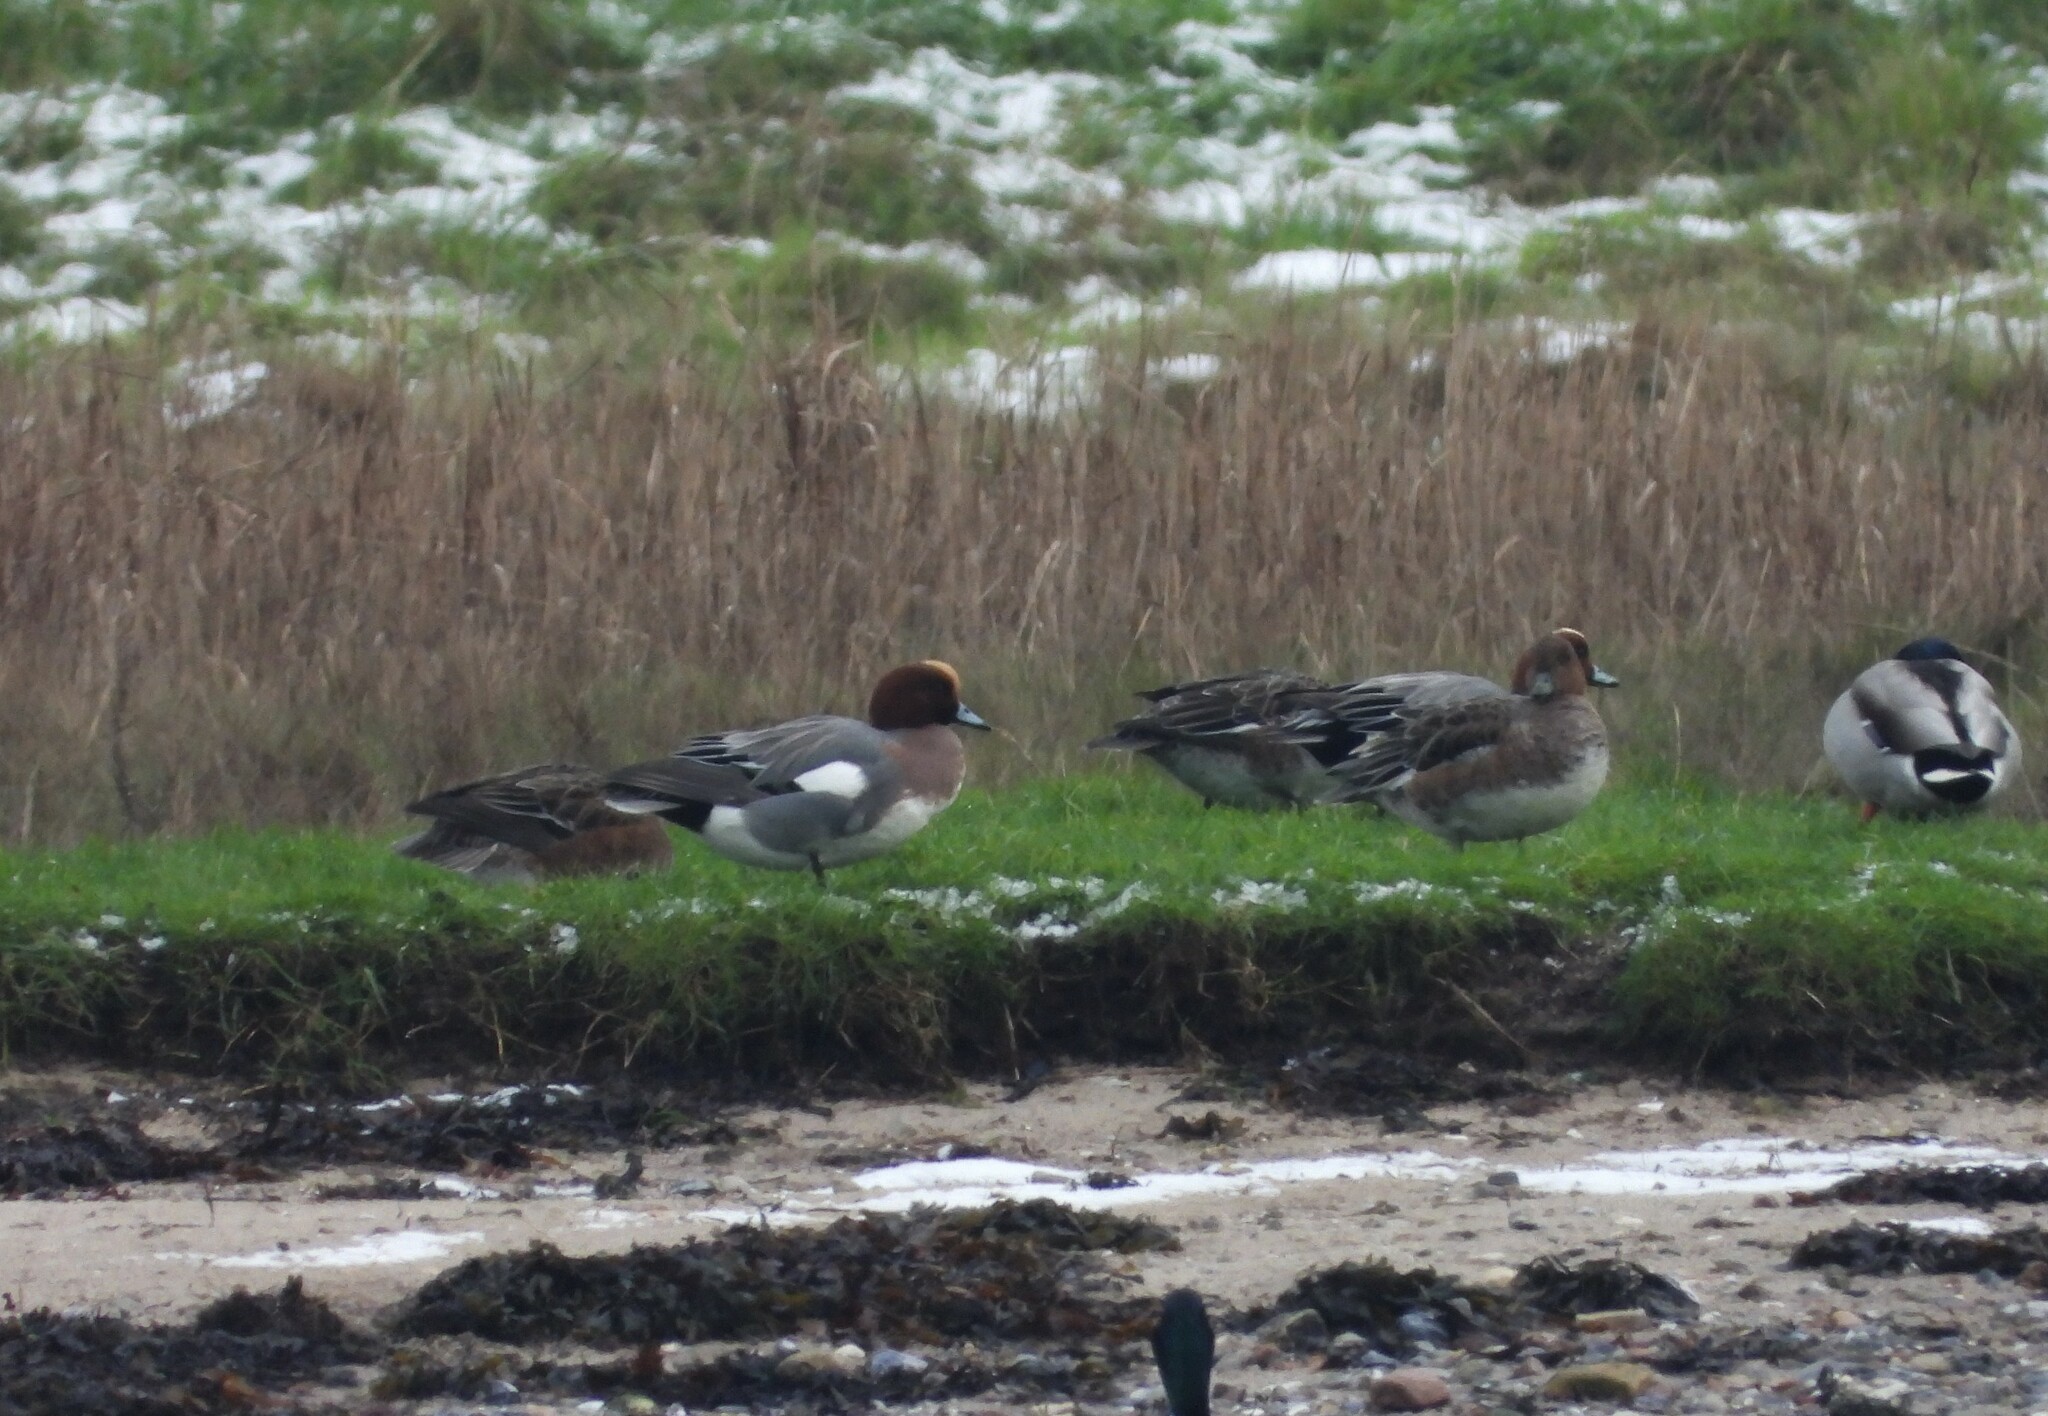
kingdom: Animalia
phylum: Chordata
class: Aves
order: Anseriformes
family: Anatidae
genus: Mareca
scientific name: Mareca penelope
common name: Eurasian wigeon
